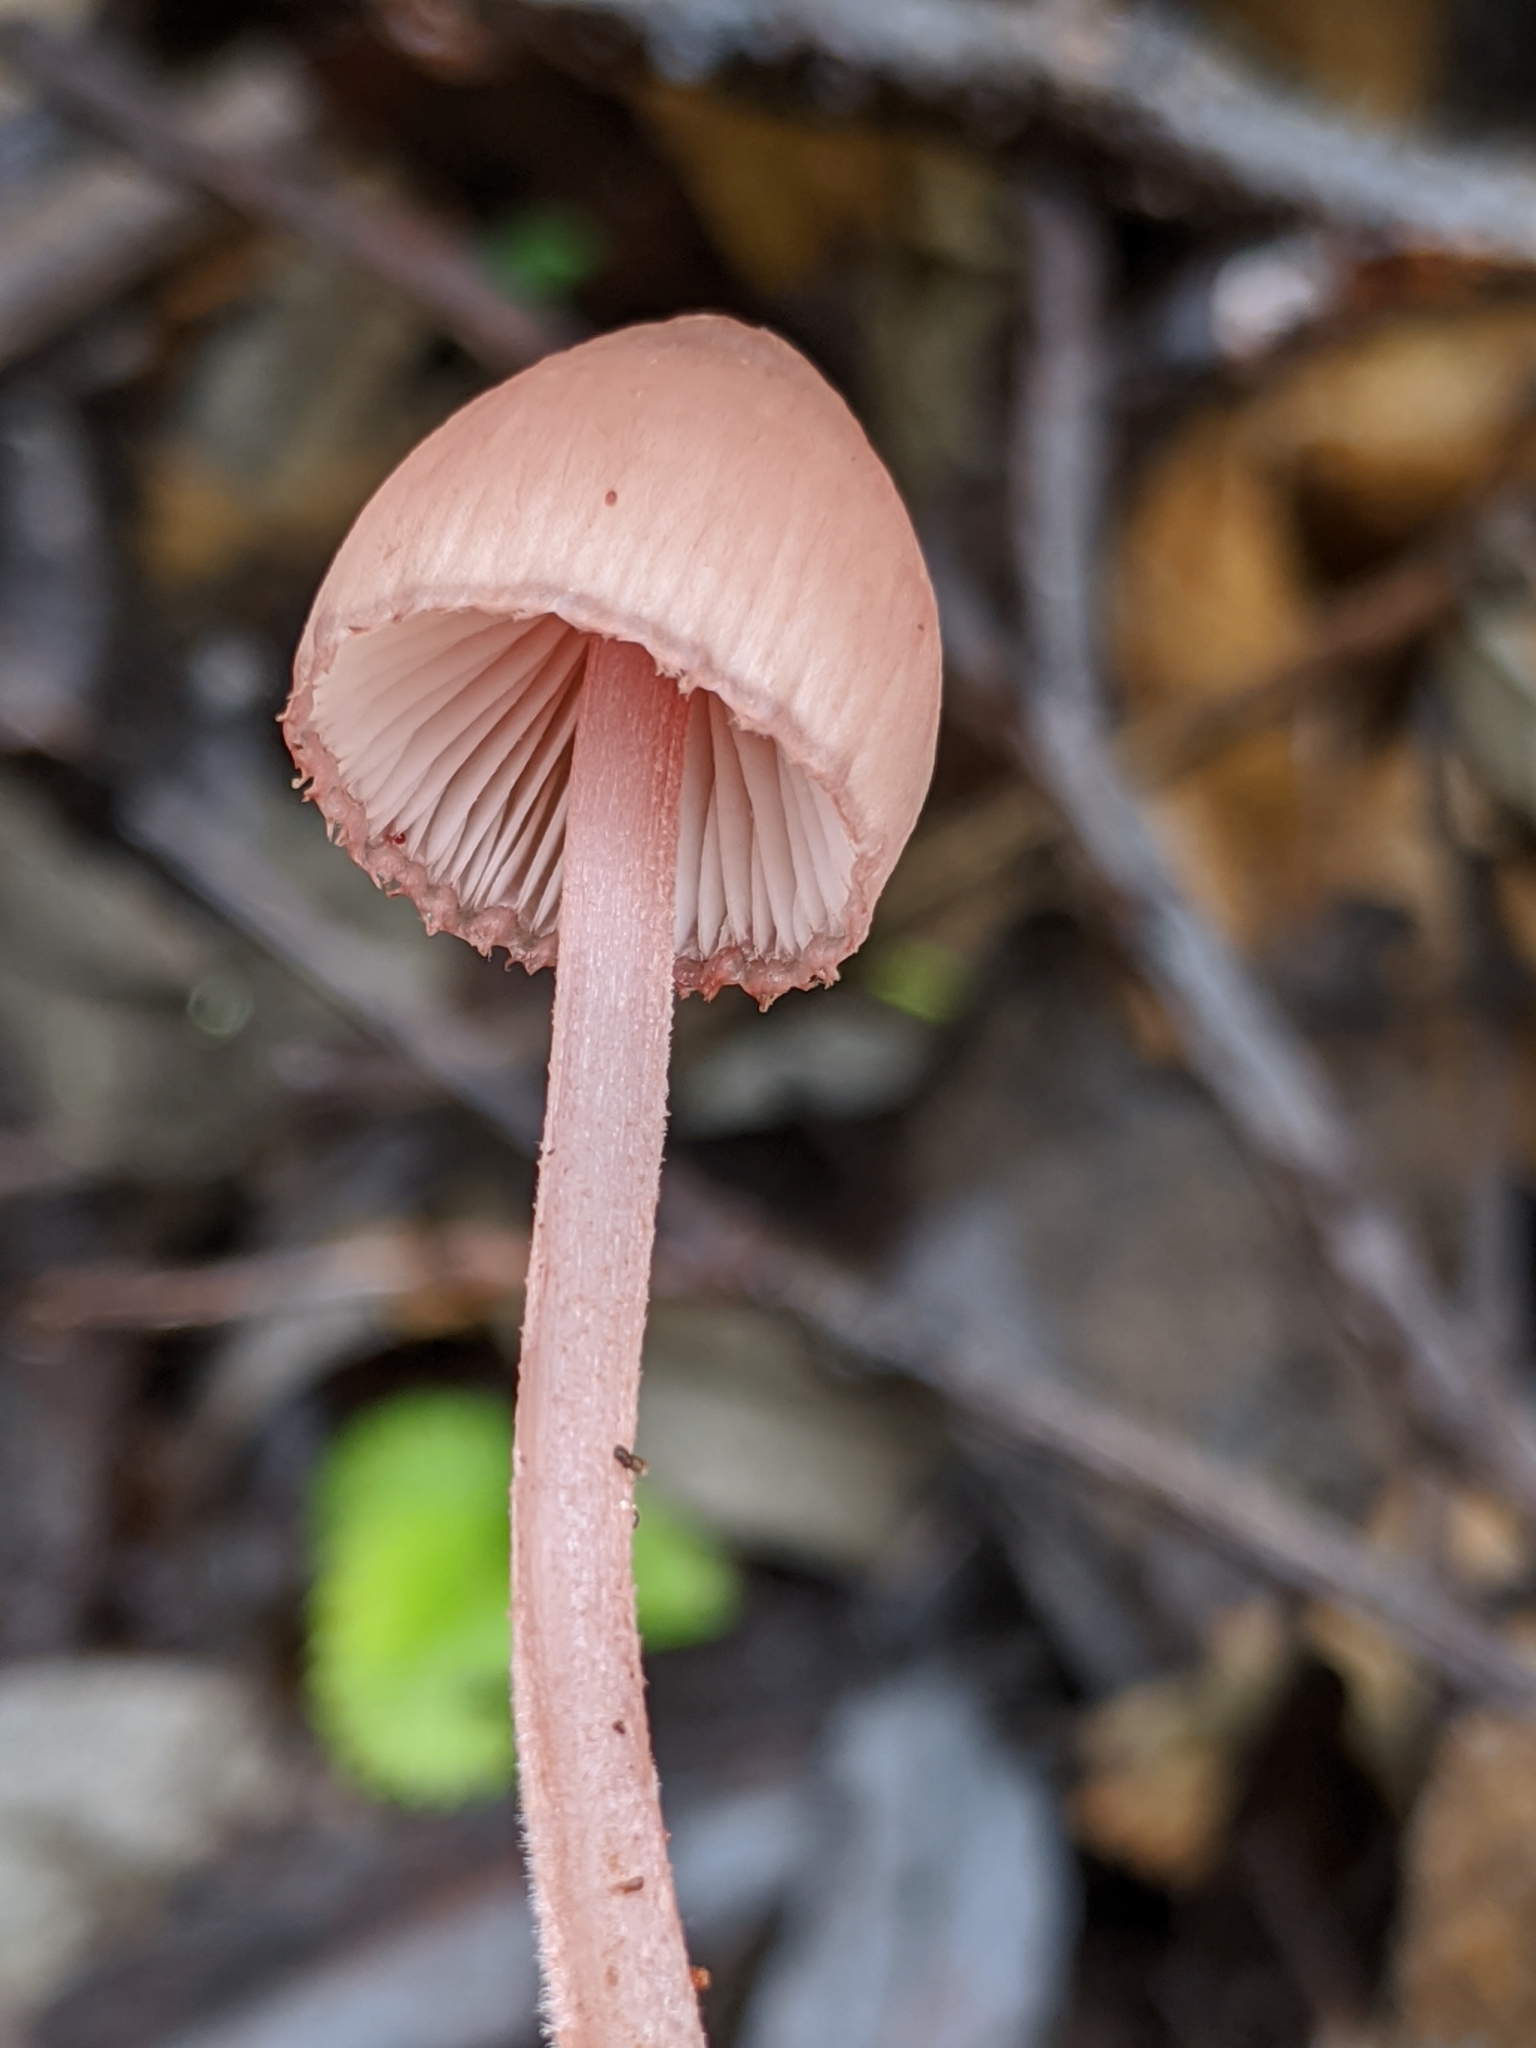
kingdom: Fungi
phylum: Basidiomycota
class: Agaricomycetes
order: Agaricales
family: Mycenaceae
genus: Mycena
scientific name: Mycena haematopus
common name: Burgundydrop bonnet
